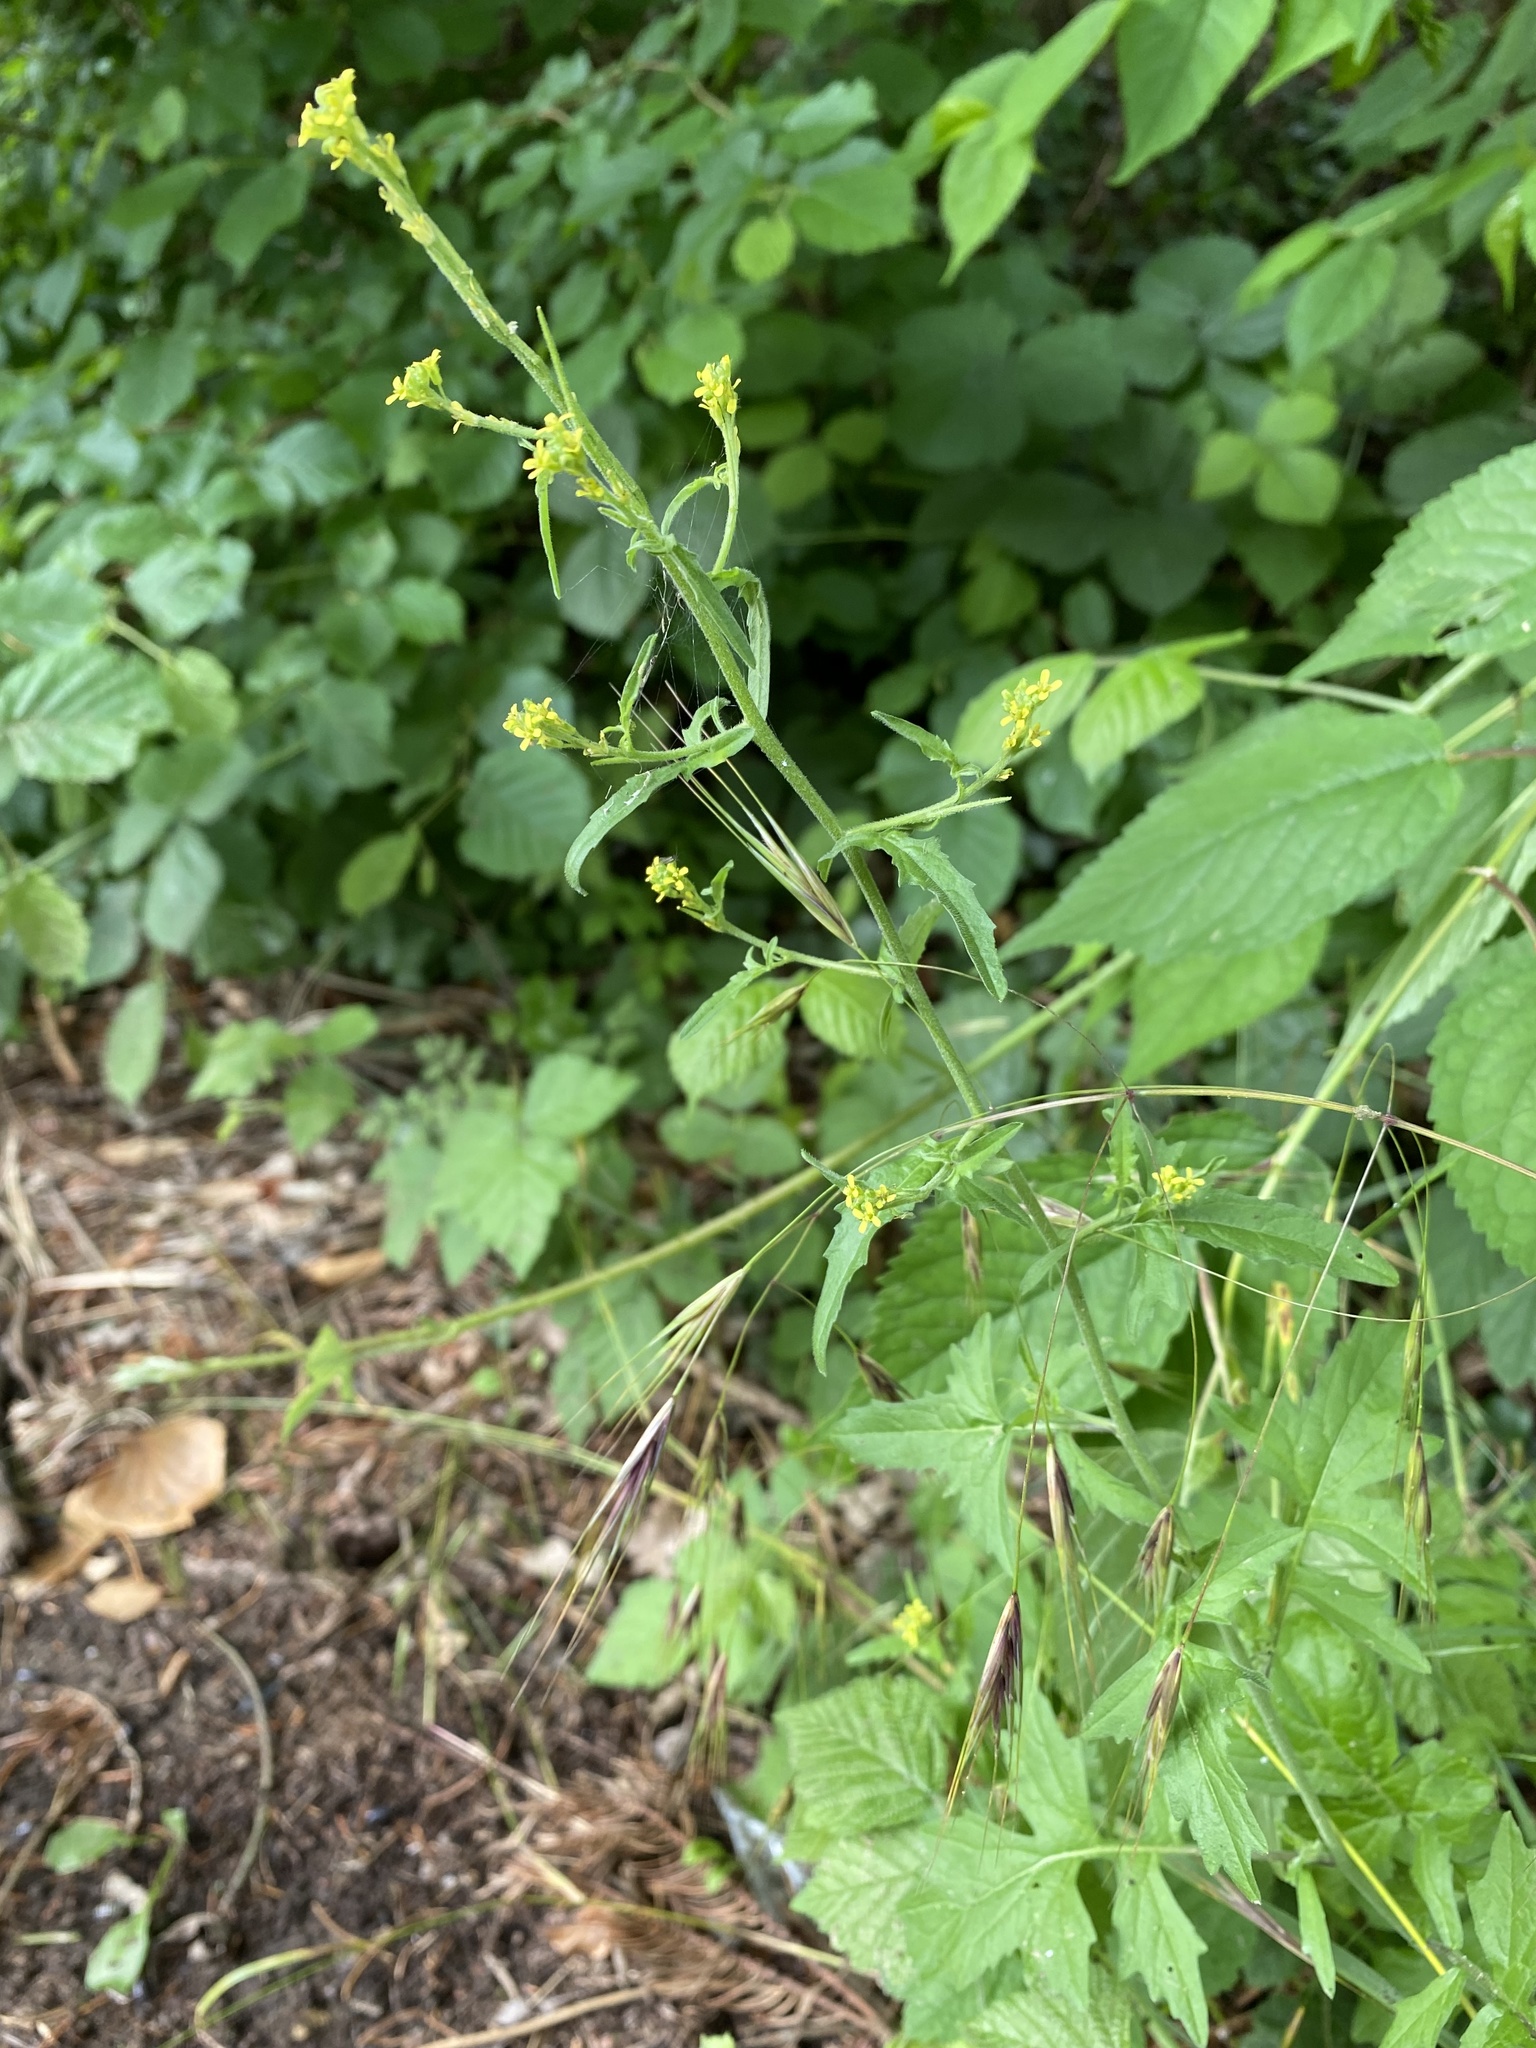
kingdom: Plantae
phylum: Tracheophyta
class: Magnoliopsida
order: Brassicales
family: Brassicaceae
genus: Sisymbrium
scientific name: Sisymbrium officinale
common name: Hedge mustard
